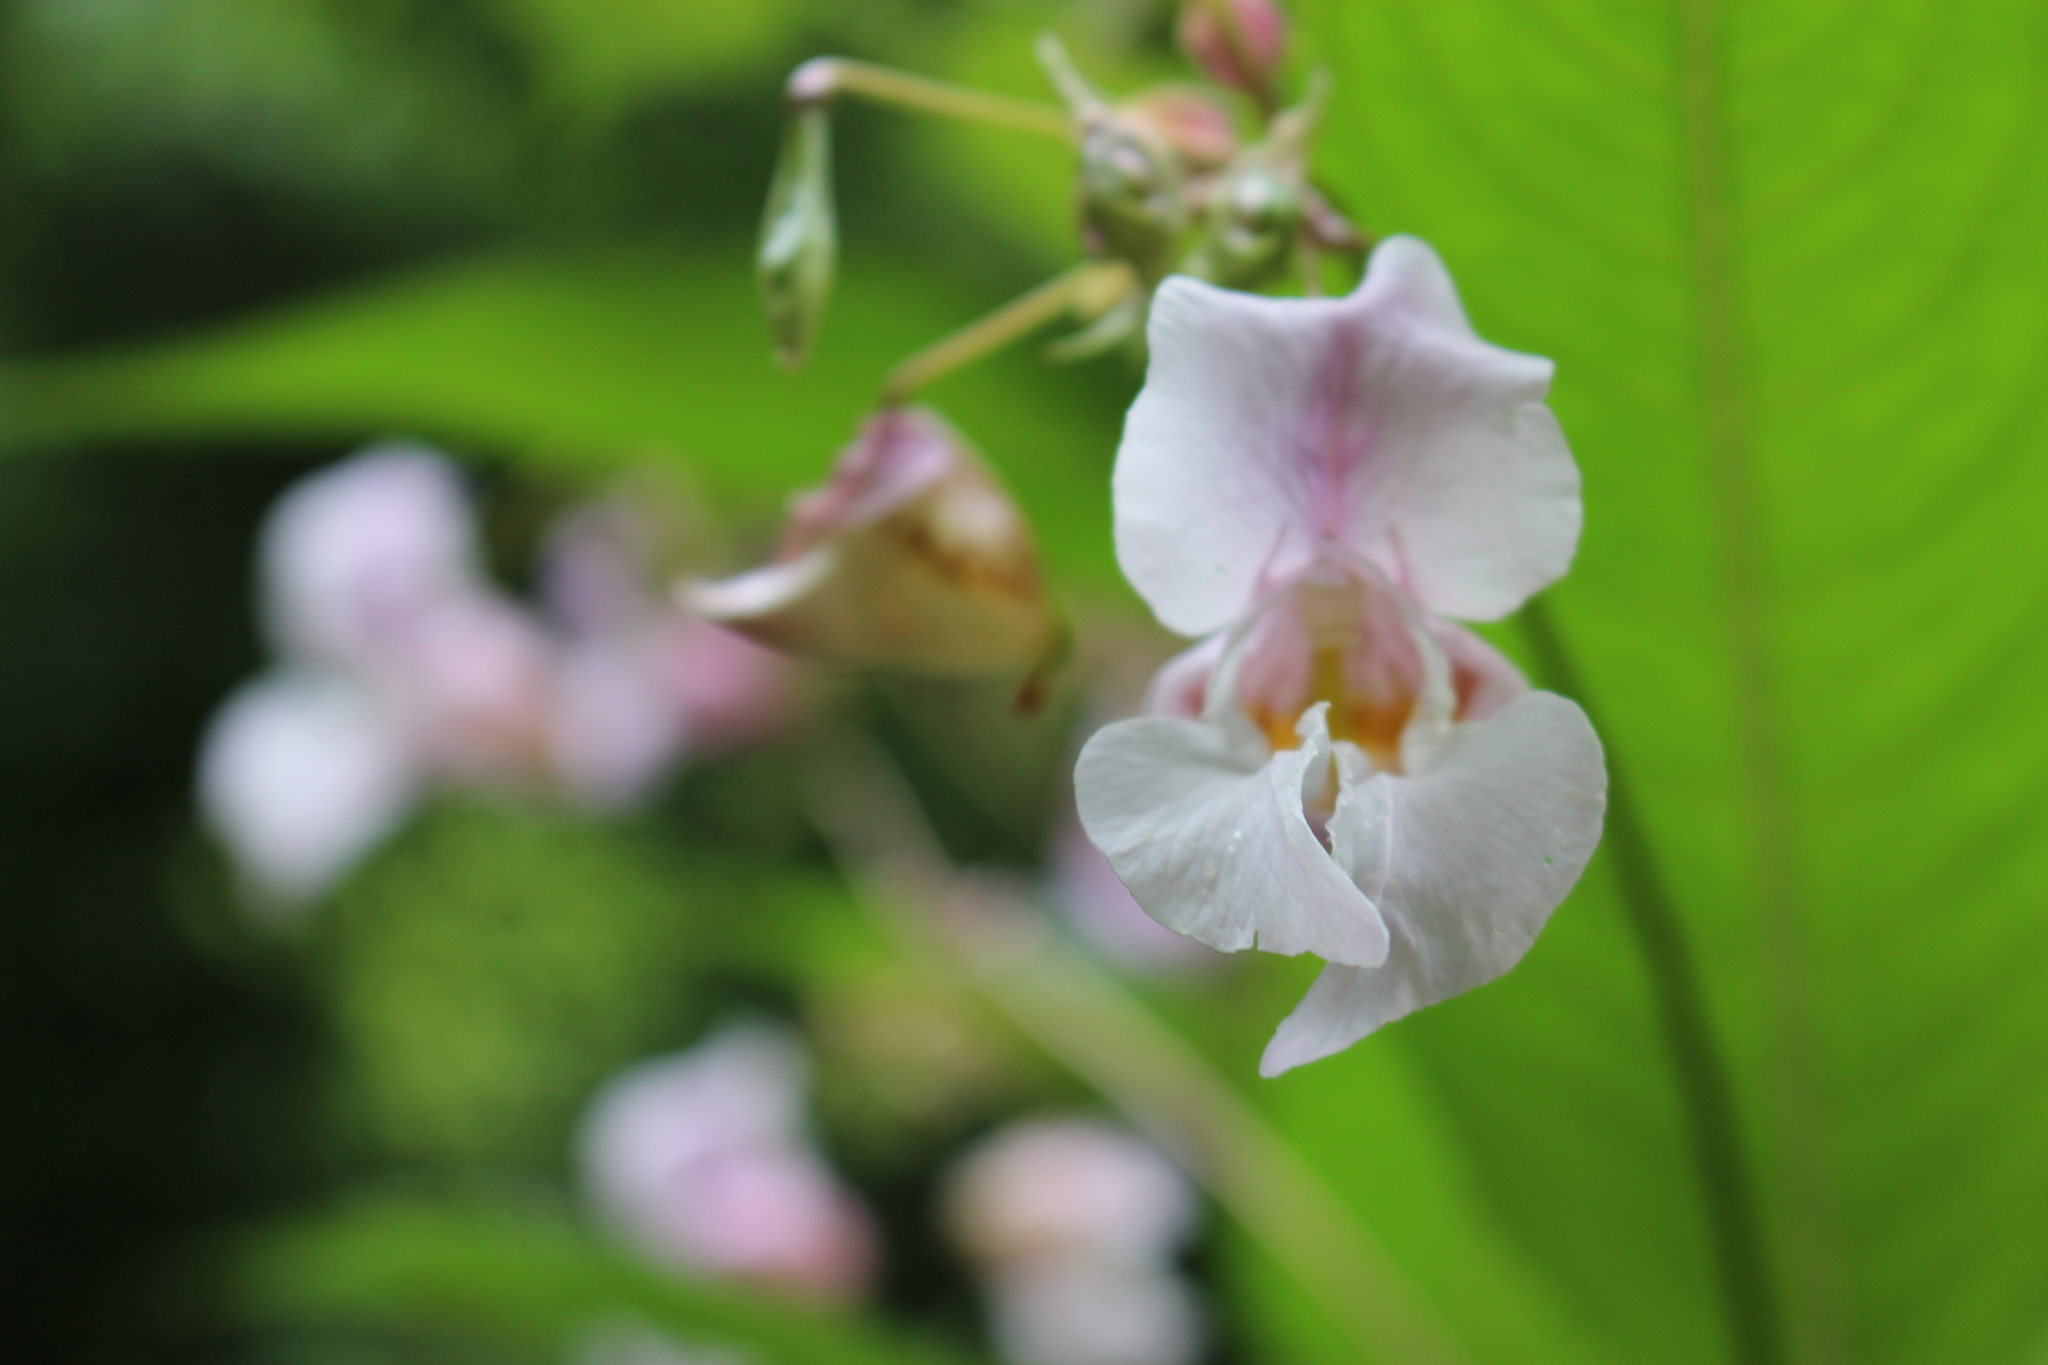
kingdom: Plantae
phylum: Tracheophyta
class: Magnoliopsida
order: Ericales
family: Balsaminaceae
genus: Impatiens
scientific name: Impatiens glandulifera
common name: Himalayan balsam
